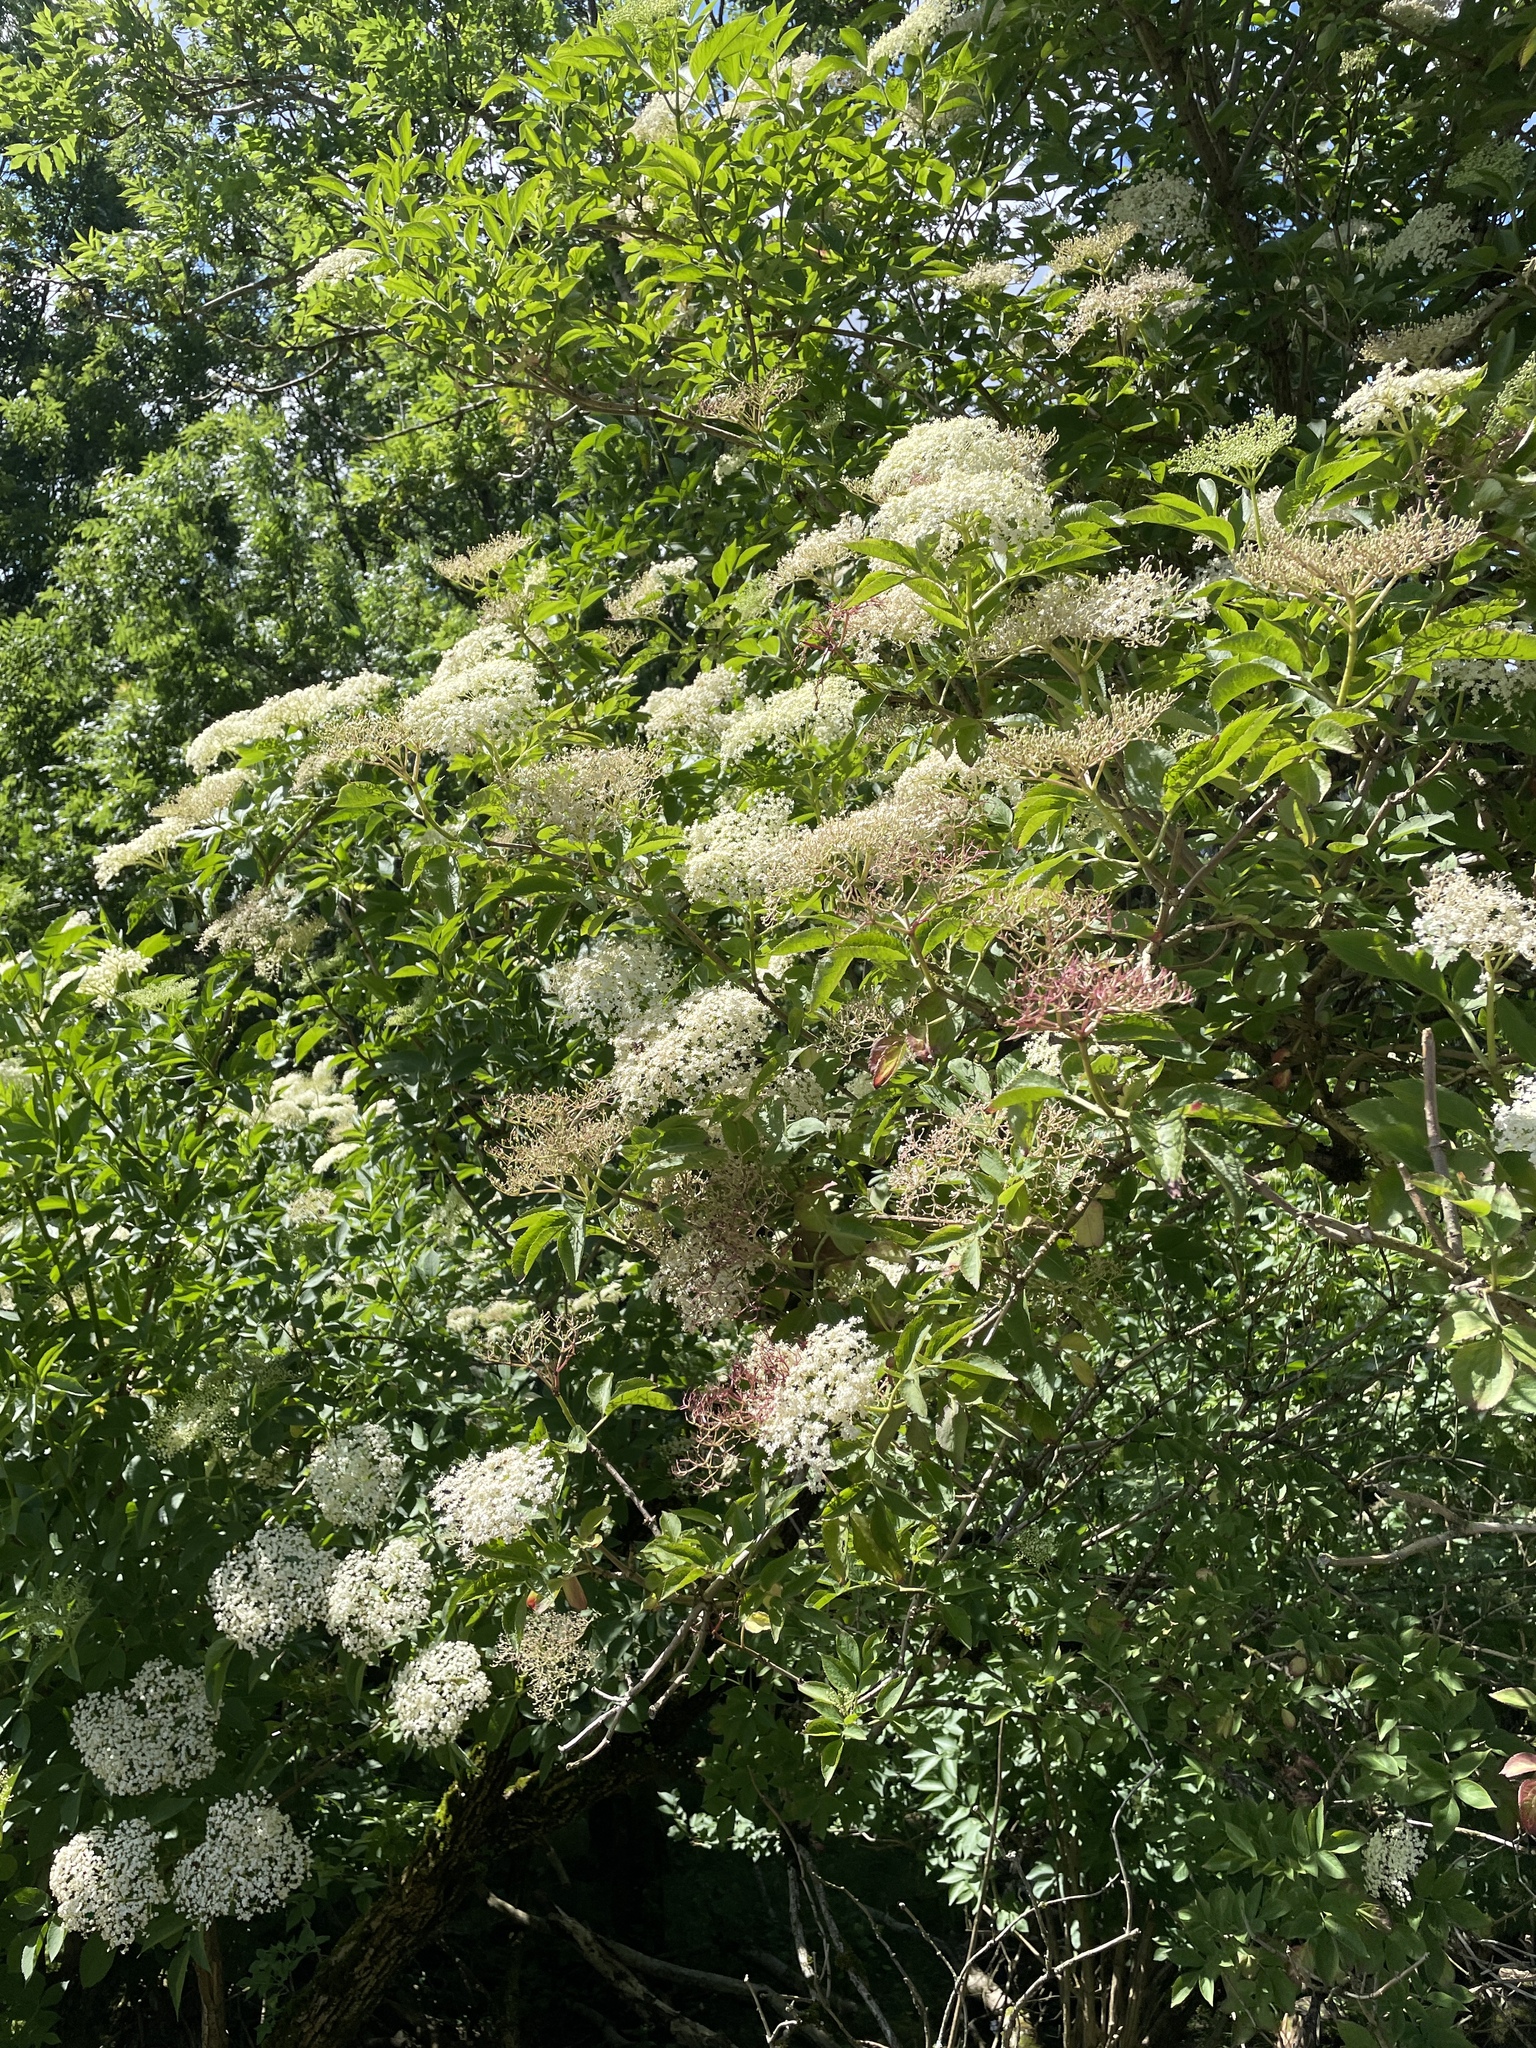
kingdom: Plantae
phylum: Tracheophyta
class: Magnoliopsida
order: Dipsacales
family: Viburnaceae
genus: Sambucus
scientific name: Sambucus nigra
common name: Elder
